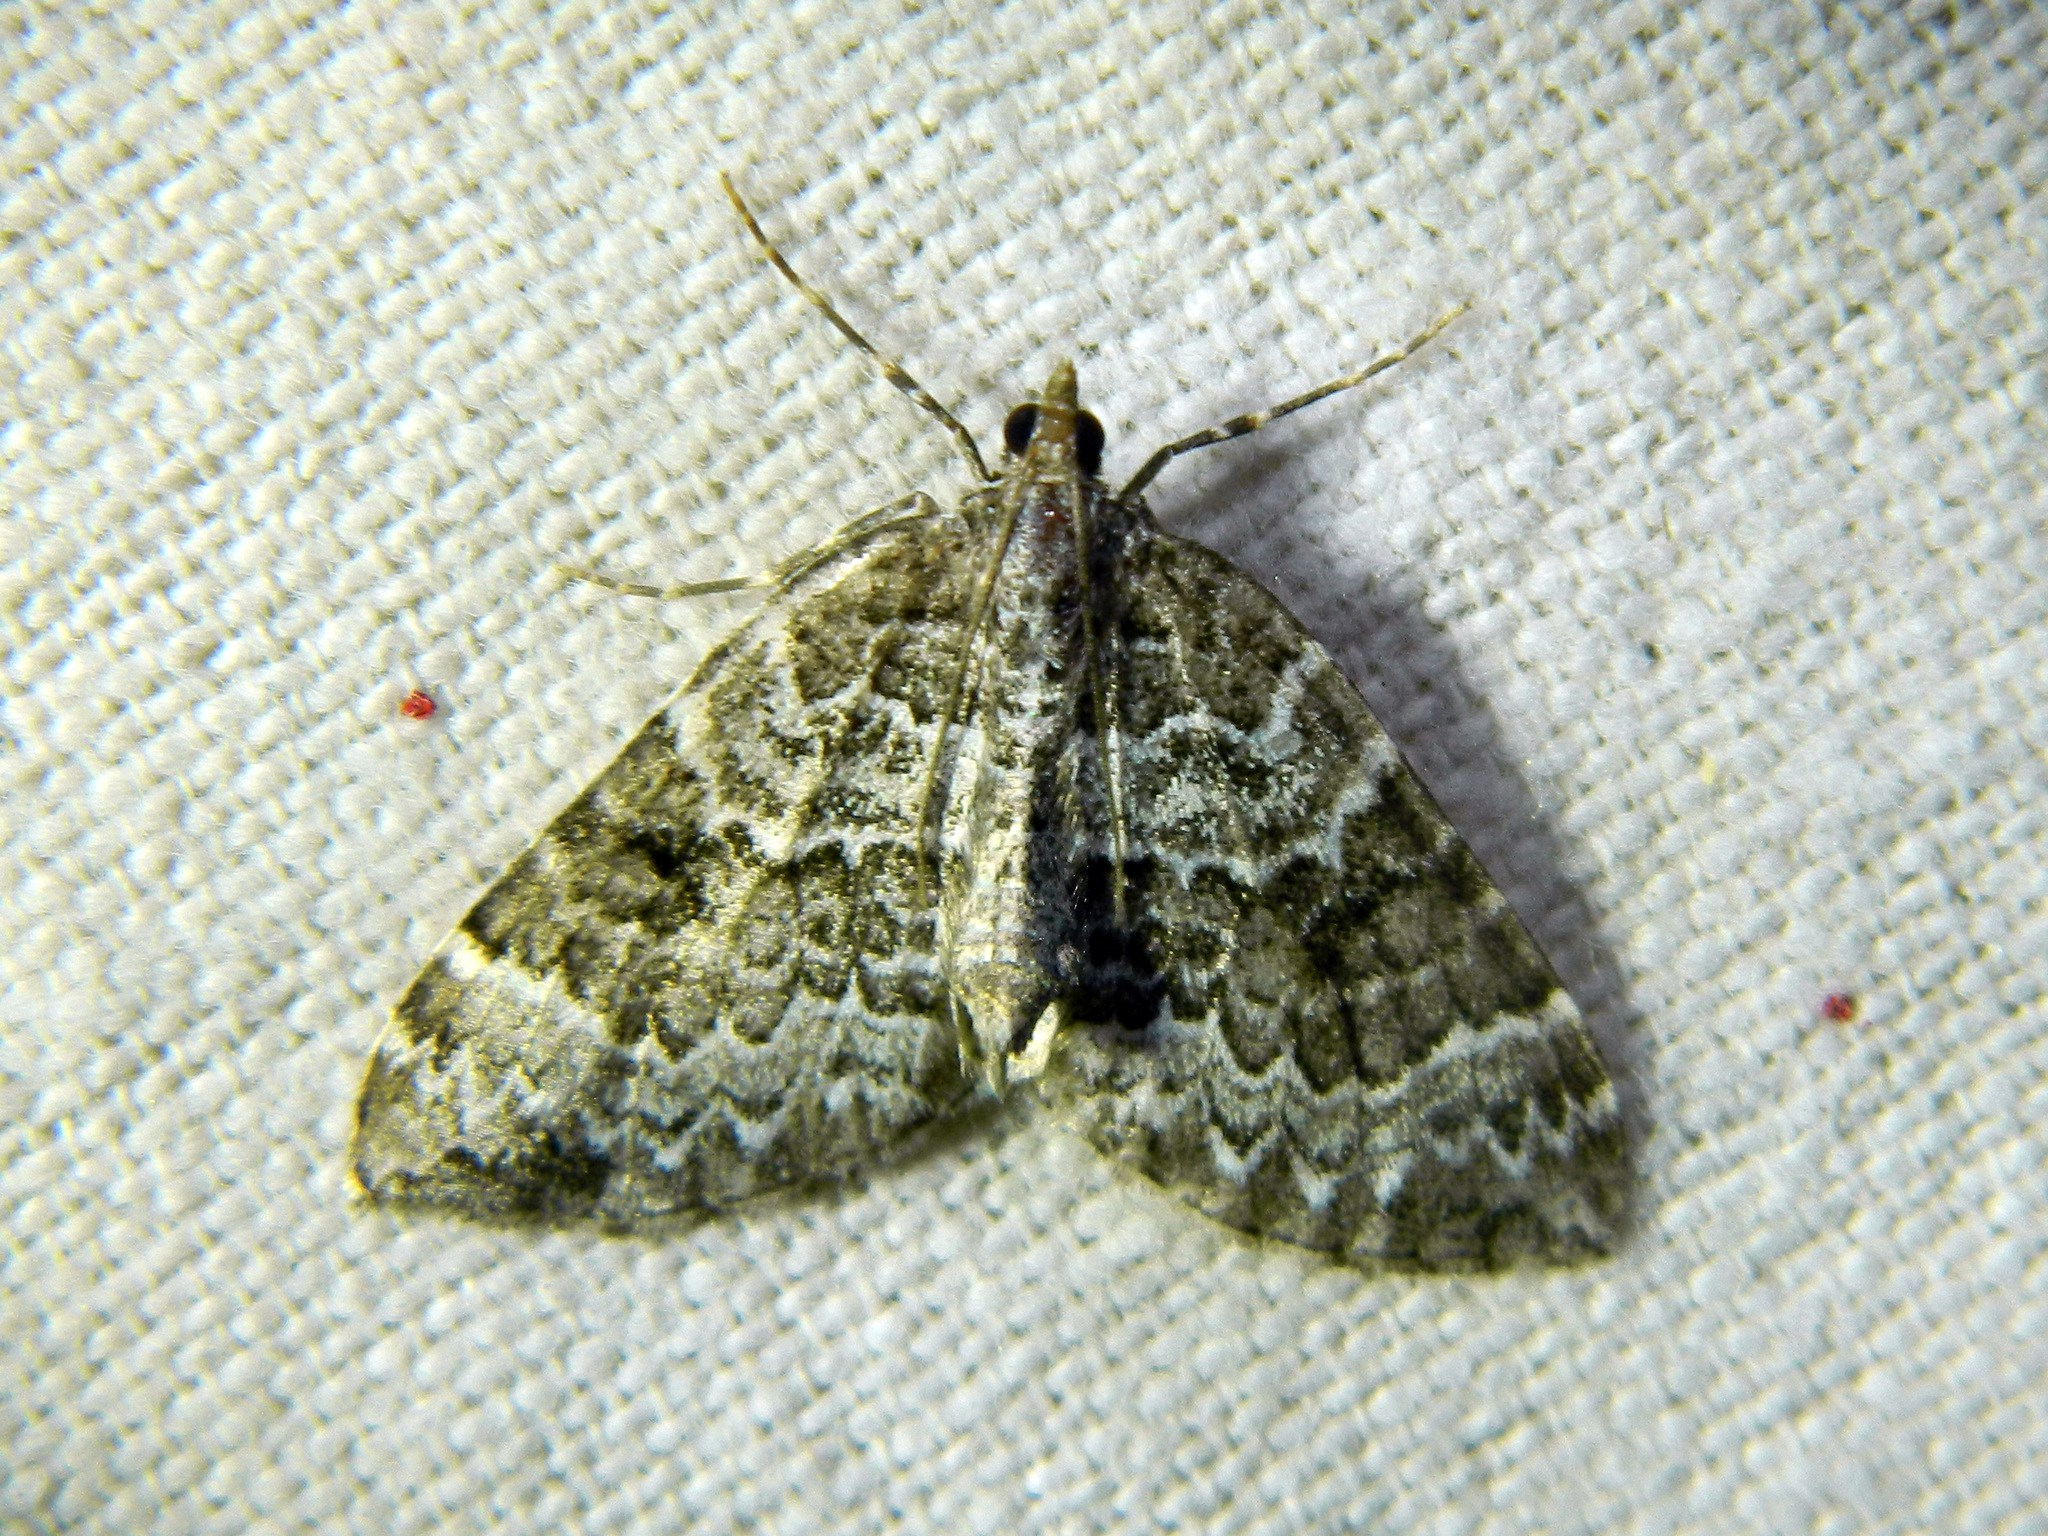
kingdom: Animalia
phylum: Arthropoda
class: Insecta
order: Lepidoptera
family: Geometridae
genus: Eulithis
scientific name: Eulithis explanata
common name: White eulithis
